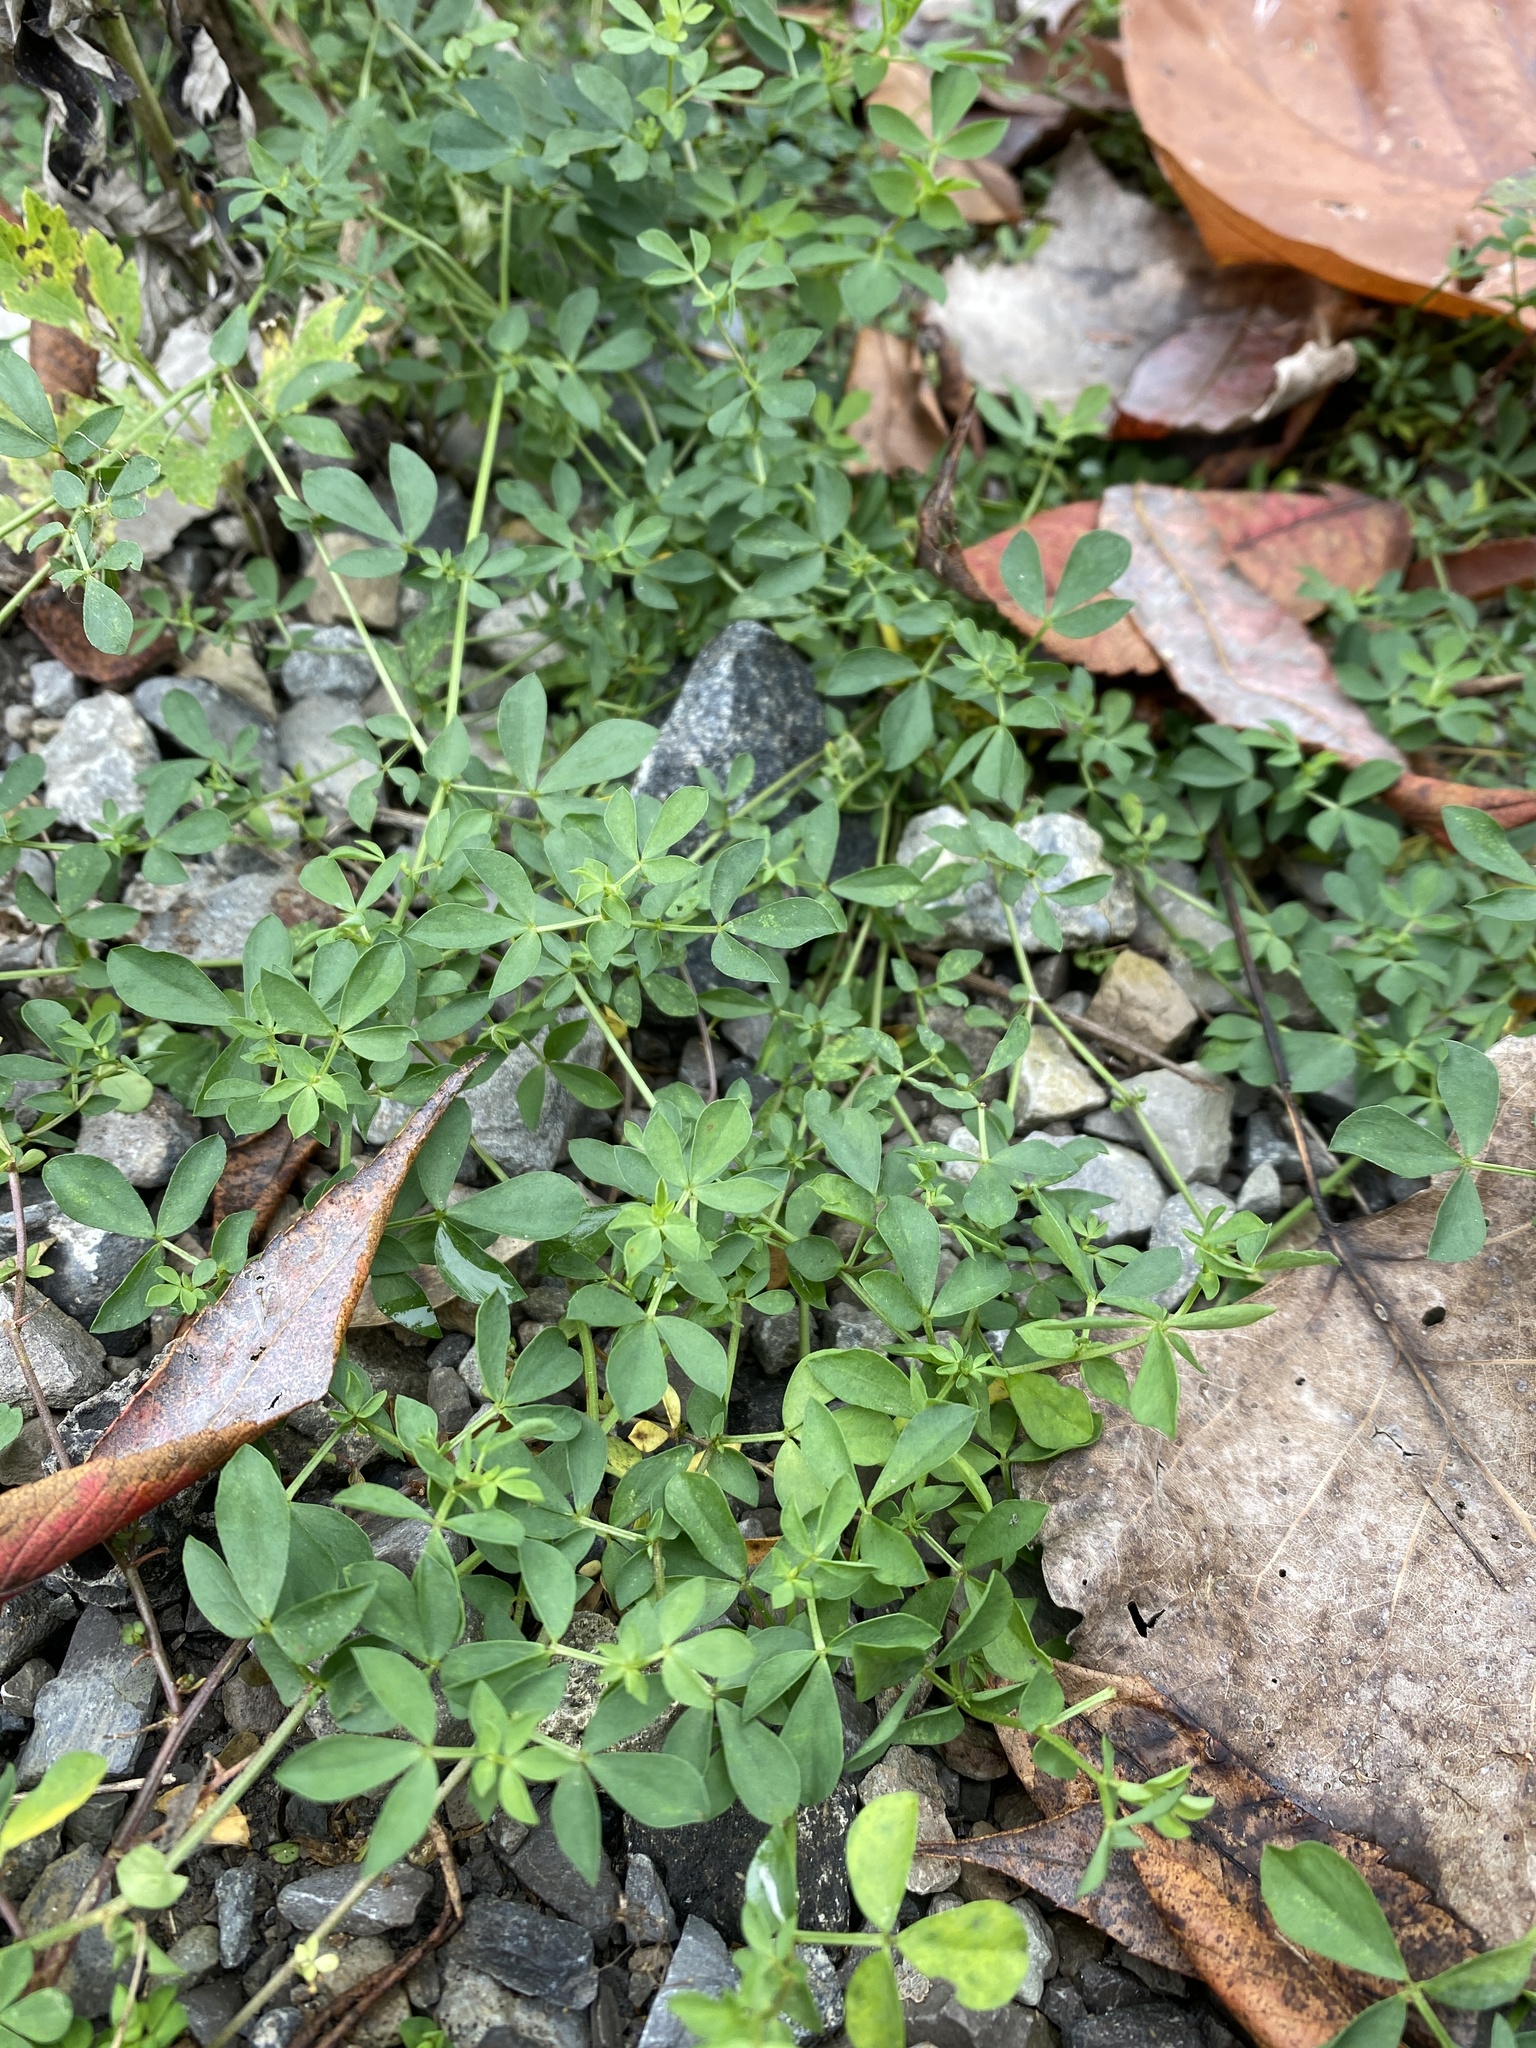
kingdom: Plantae
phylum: Tracheophyta
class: Magnoliopsida
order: Fabales
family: Fabaceae
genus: Lotus
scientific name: Lotus corniculatus
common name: Common bird's-foot-trefoil
